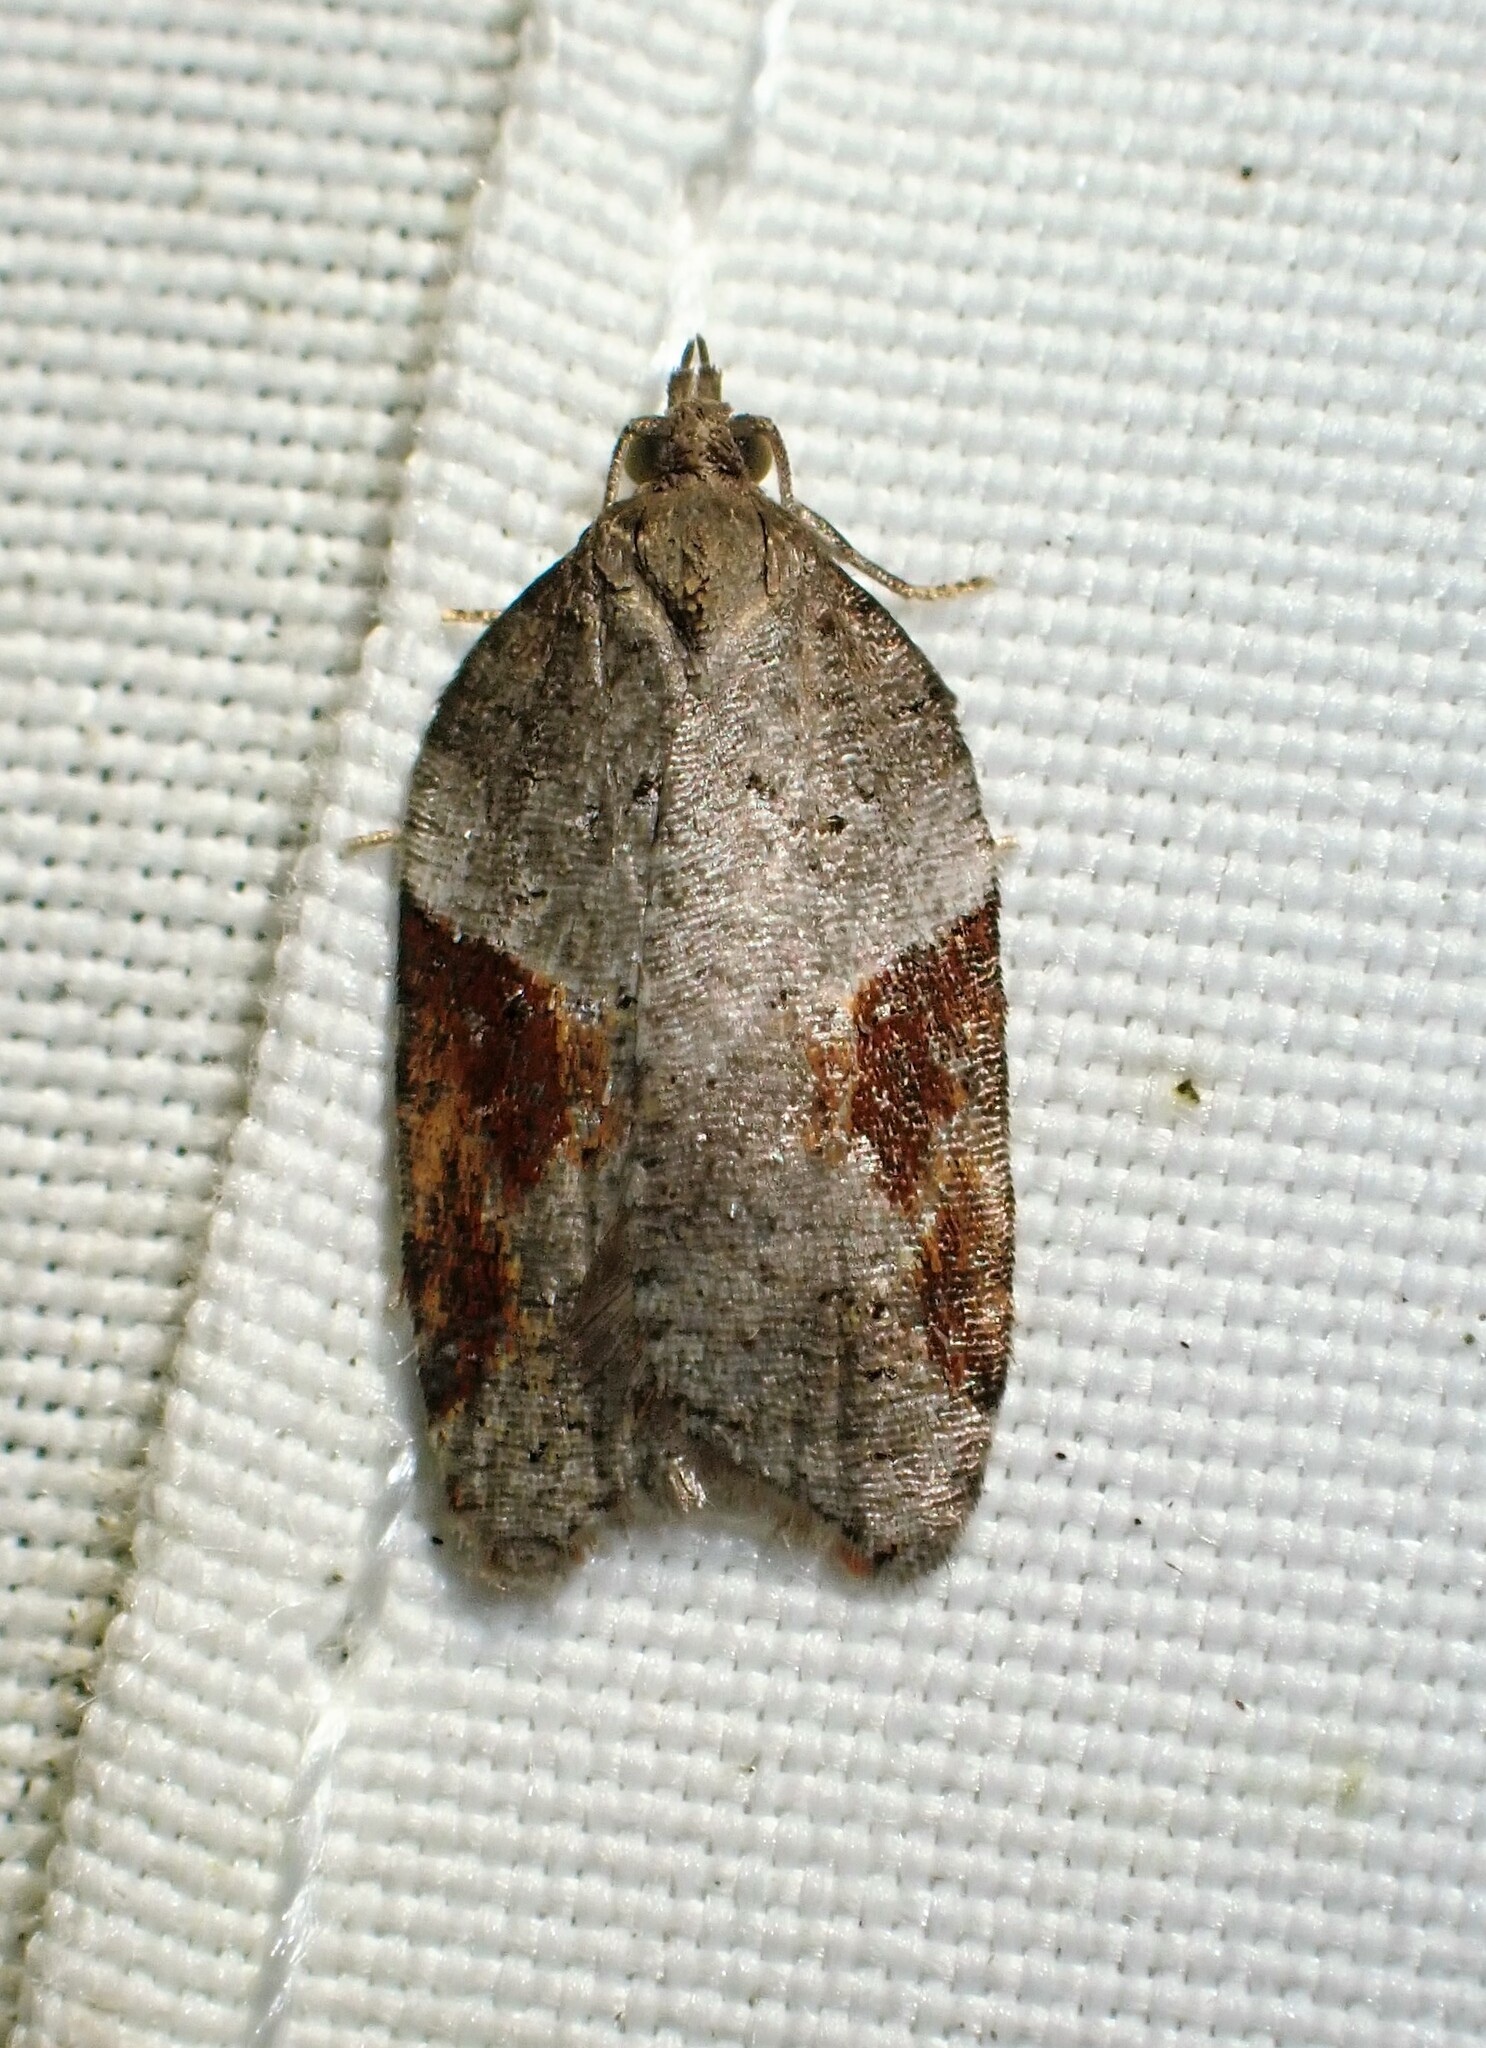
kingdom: Animalia
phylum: Arthropoda
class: Insecta
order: Lepidoptera
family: Tortricidae
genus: Acleris
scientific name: Acleris macdunnoughi
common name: Macdunnough's acleris
